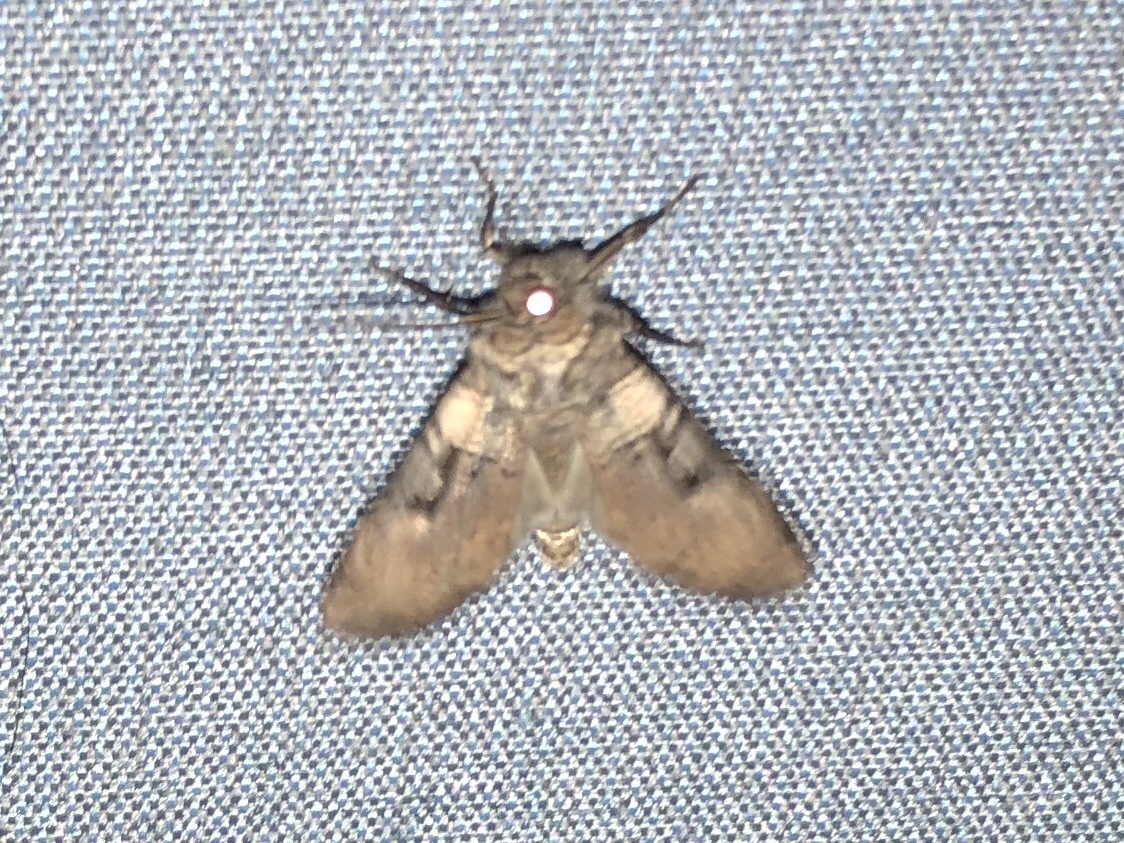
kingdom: Animalia
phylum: Arthropoda
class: Insecta
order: Lepidoptera
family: Noctuidae
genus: Richia
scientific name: Richia serano
